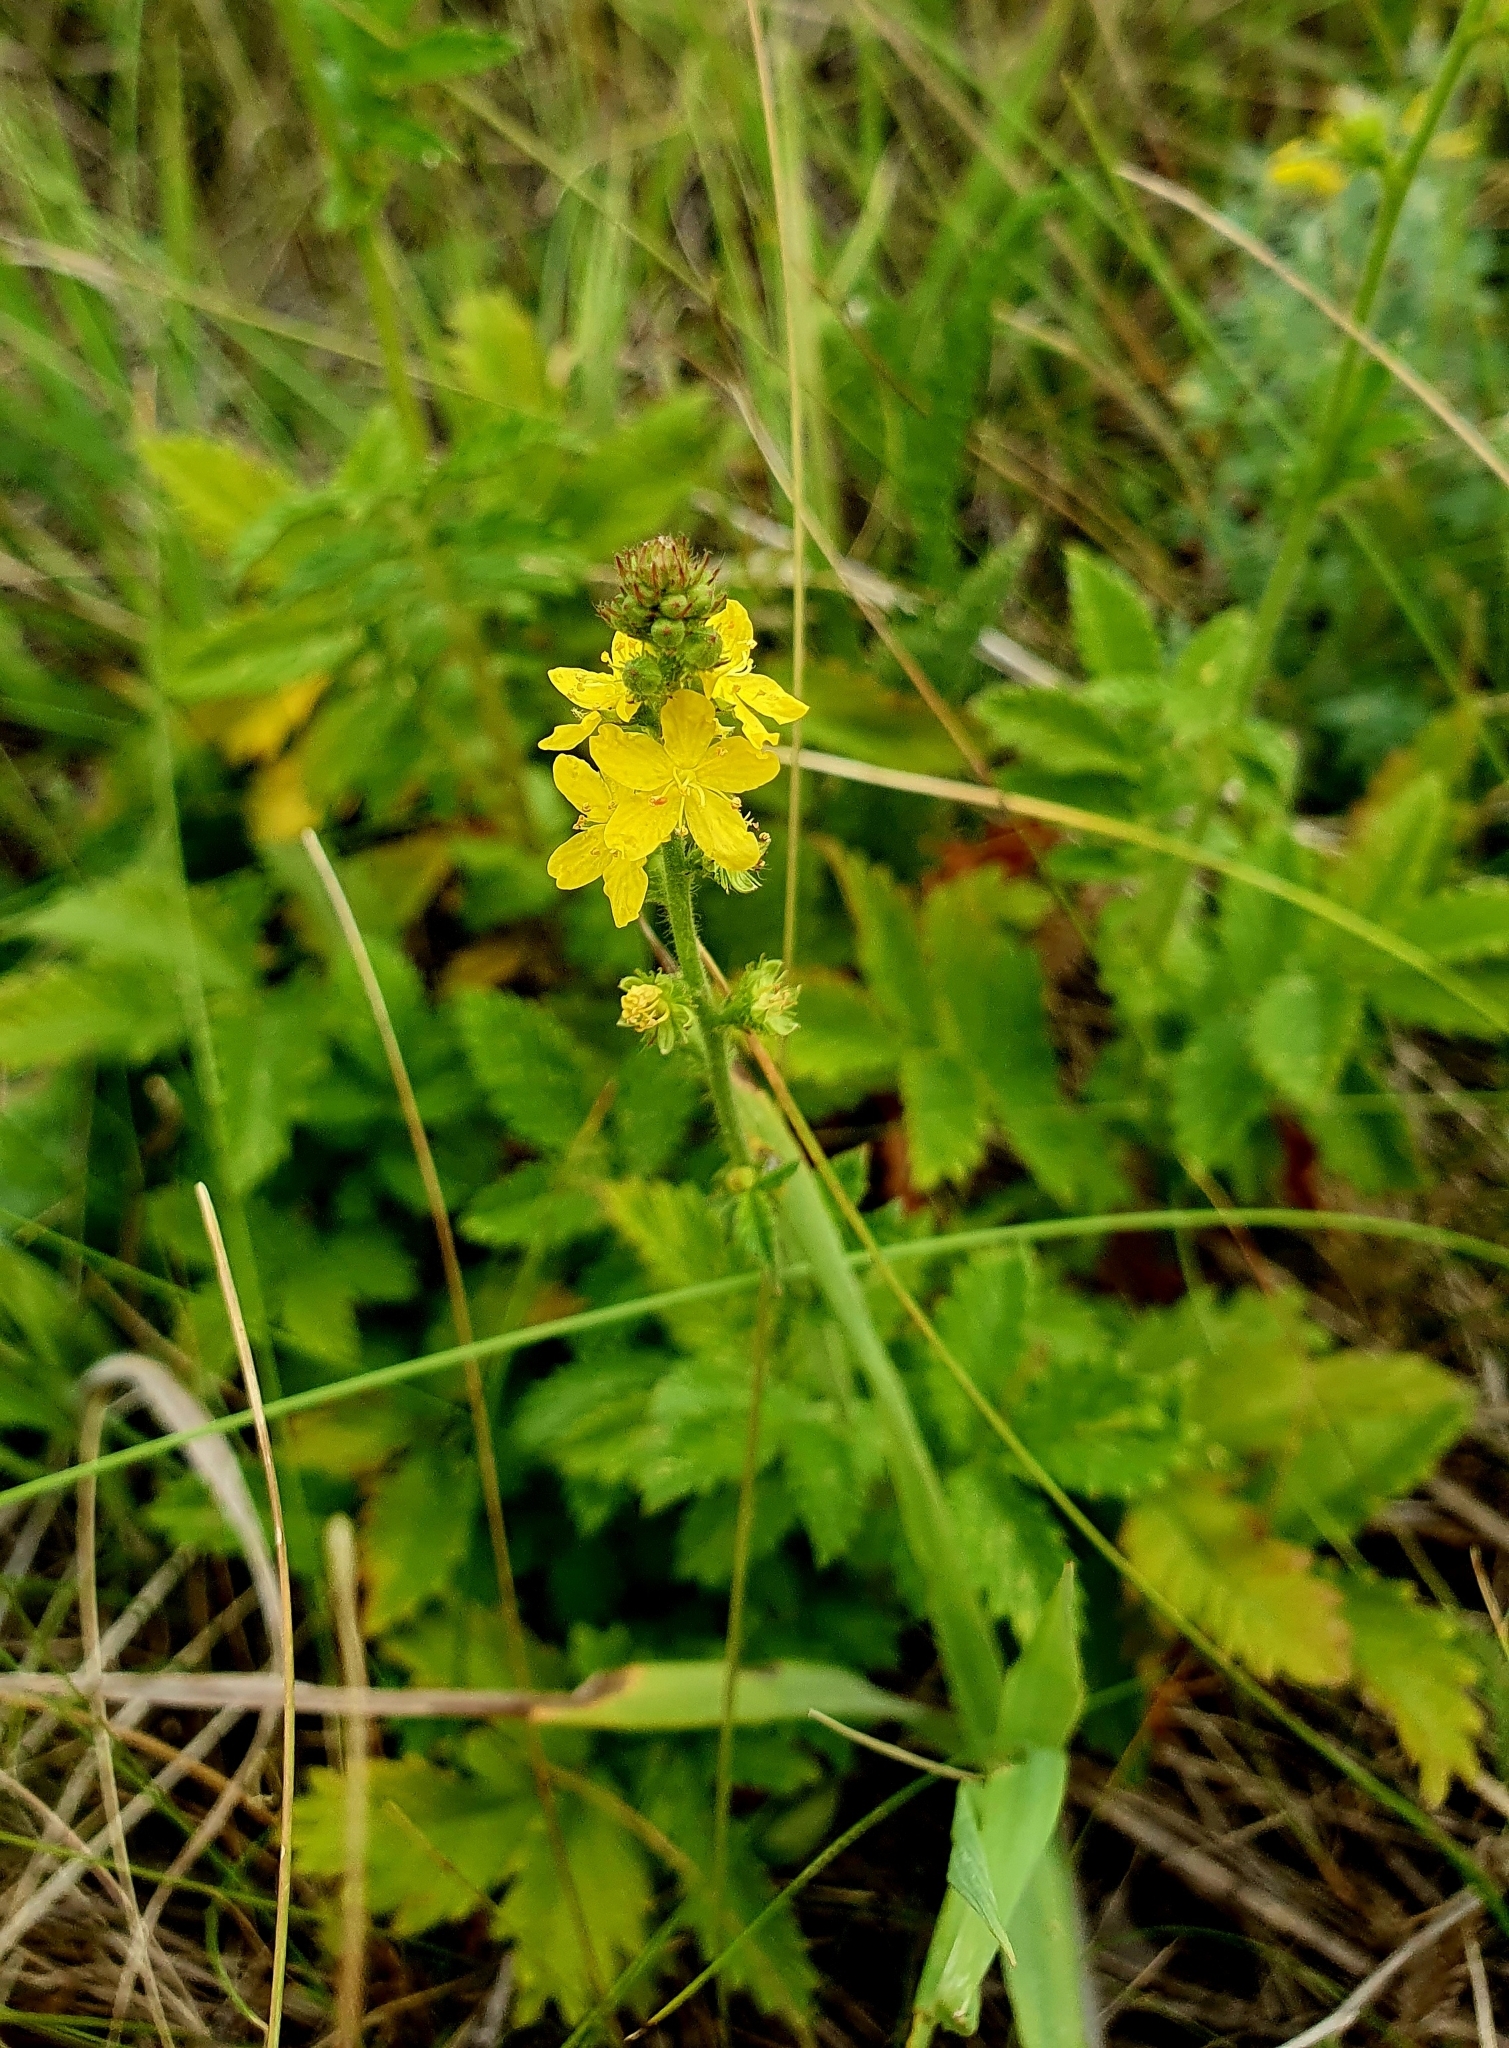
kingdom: Plantae
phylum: Tracheophyta
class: Magnoliopsida
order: Rosales
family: Rosaceae
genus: Agrimonia
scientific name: Agrimonia eupatoria
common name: Agrimony
